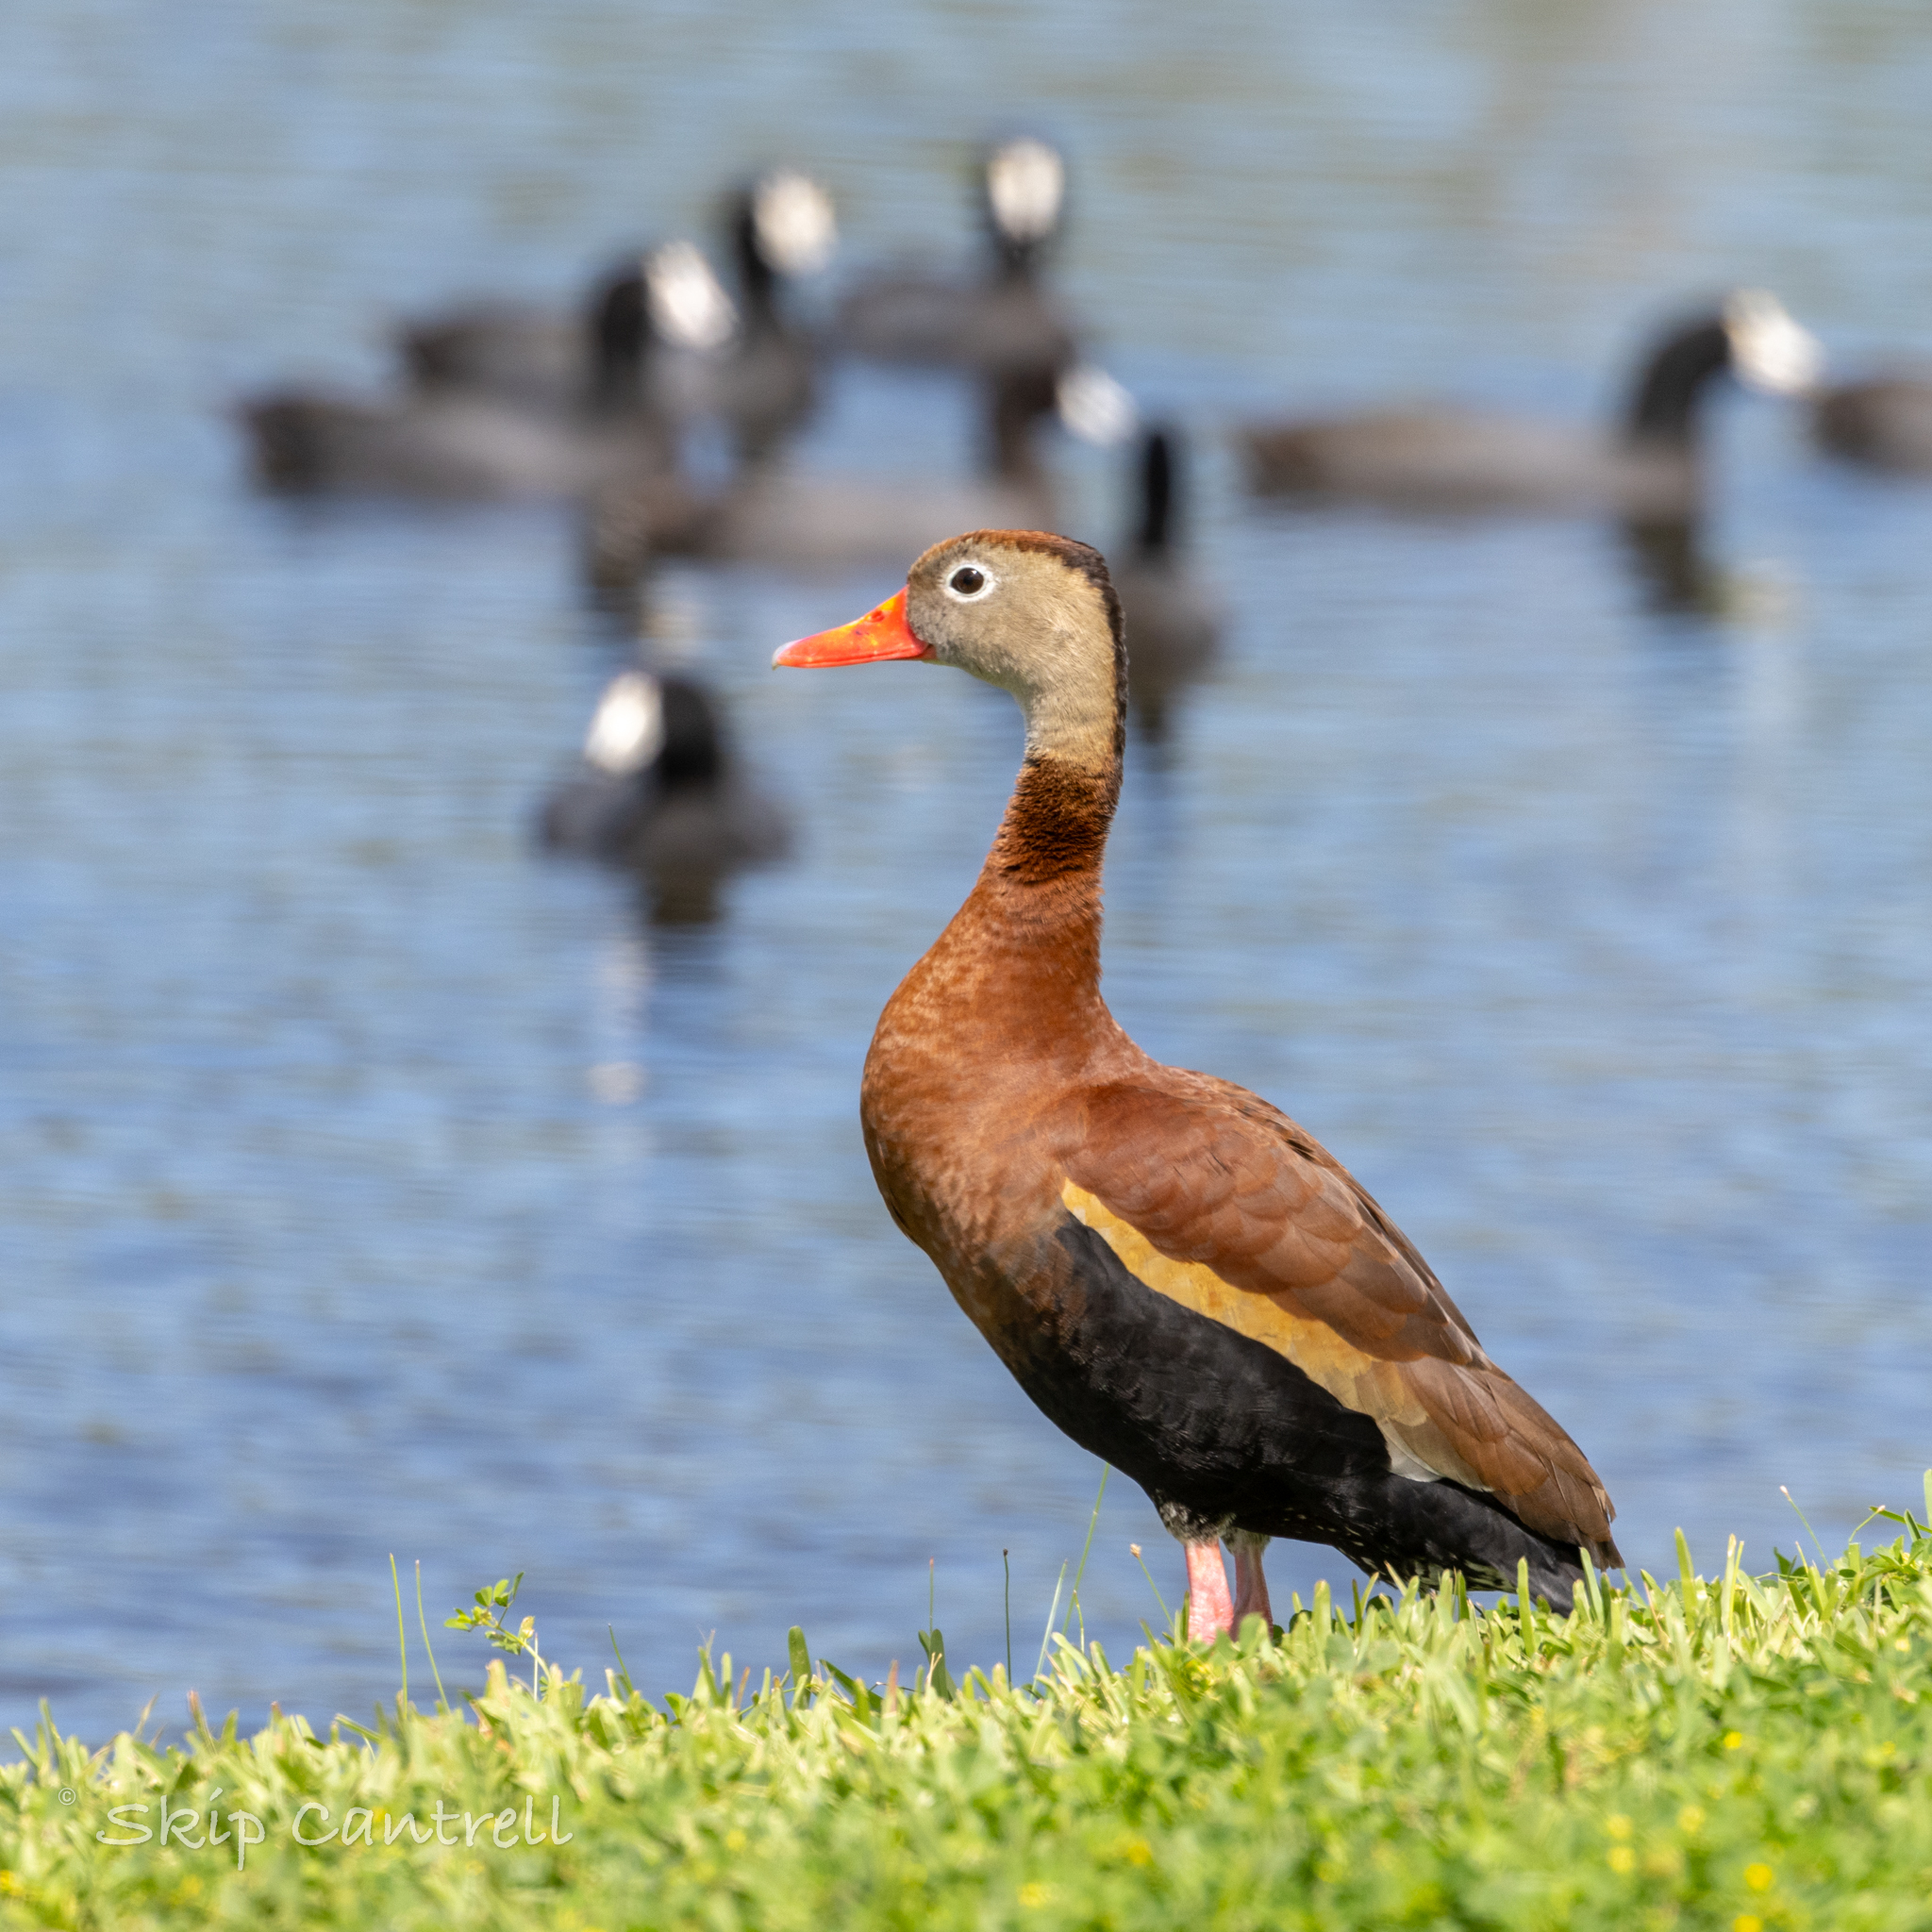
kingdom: Animalia
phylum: Chordata
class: Aves
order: Anseriformes
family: Anatidae
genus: Dendrocygna
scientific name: Dendrocygna autumnalis
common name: Black-bellied whistling duck
